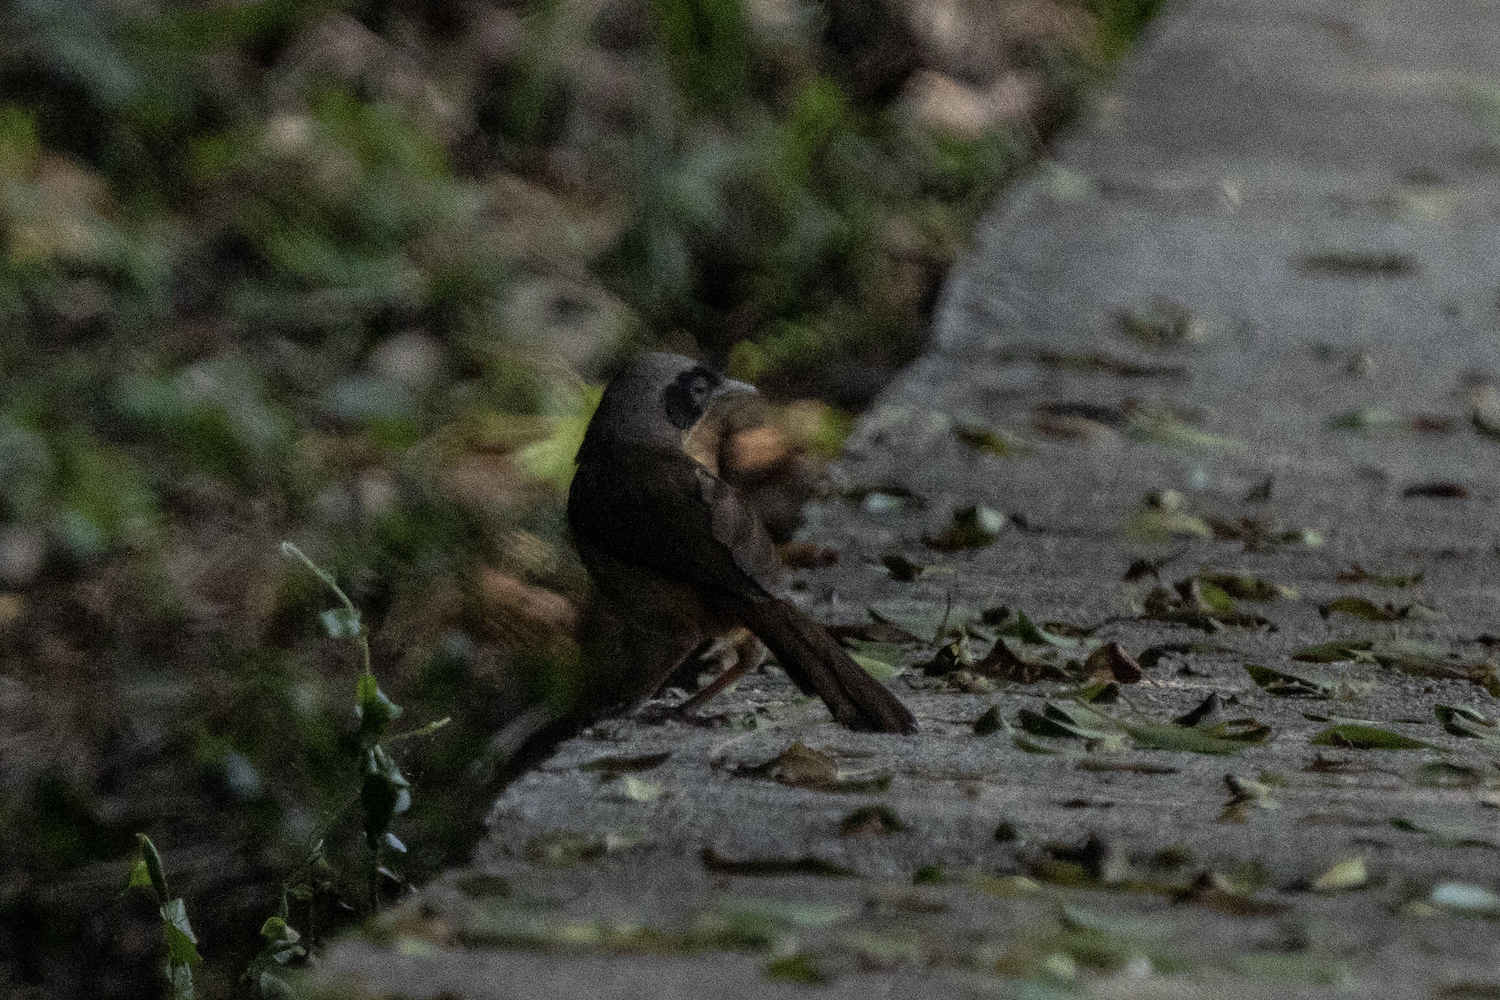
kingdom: Animalia
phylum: Chordata
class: Aves
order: Passeriformes
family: Leiothrichidae
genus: Garrulax
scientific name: Garrulax perspicillatus
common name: Masked laughingthrush
